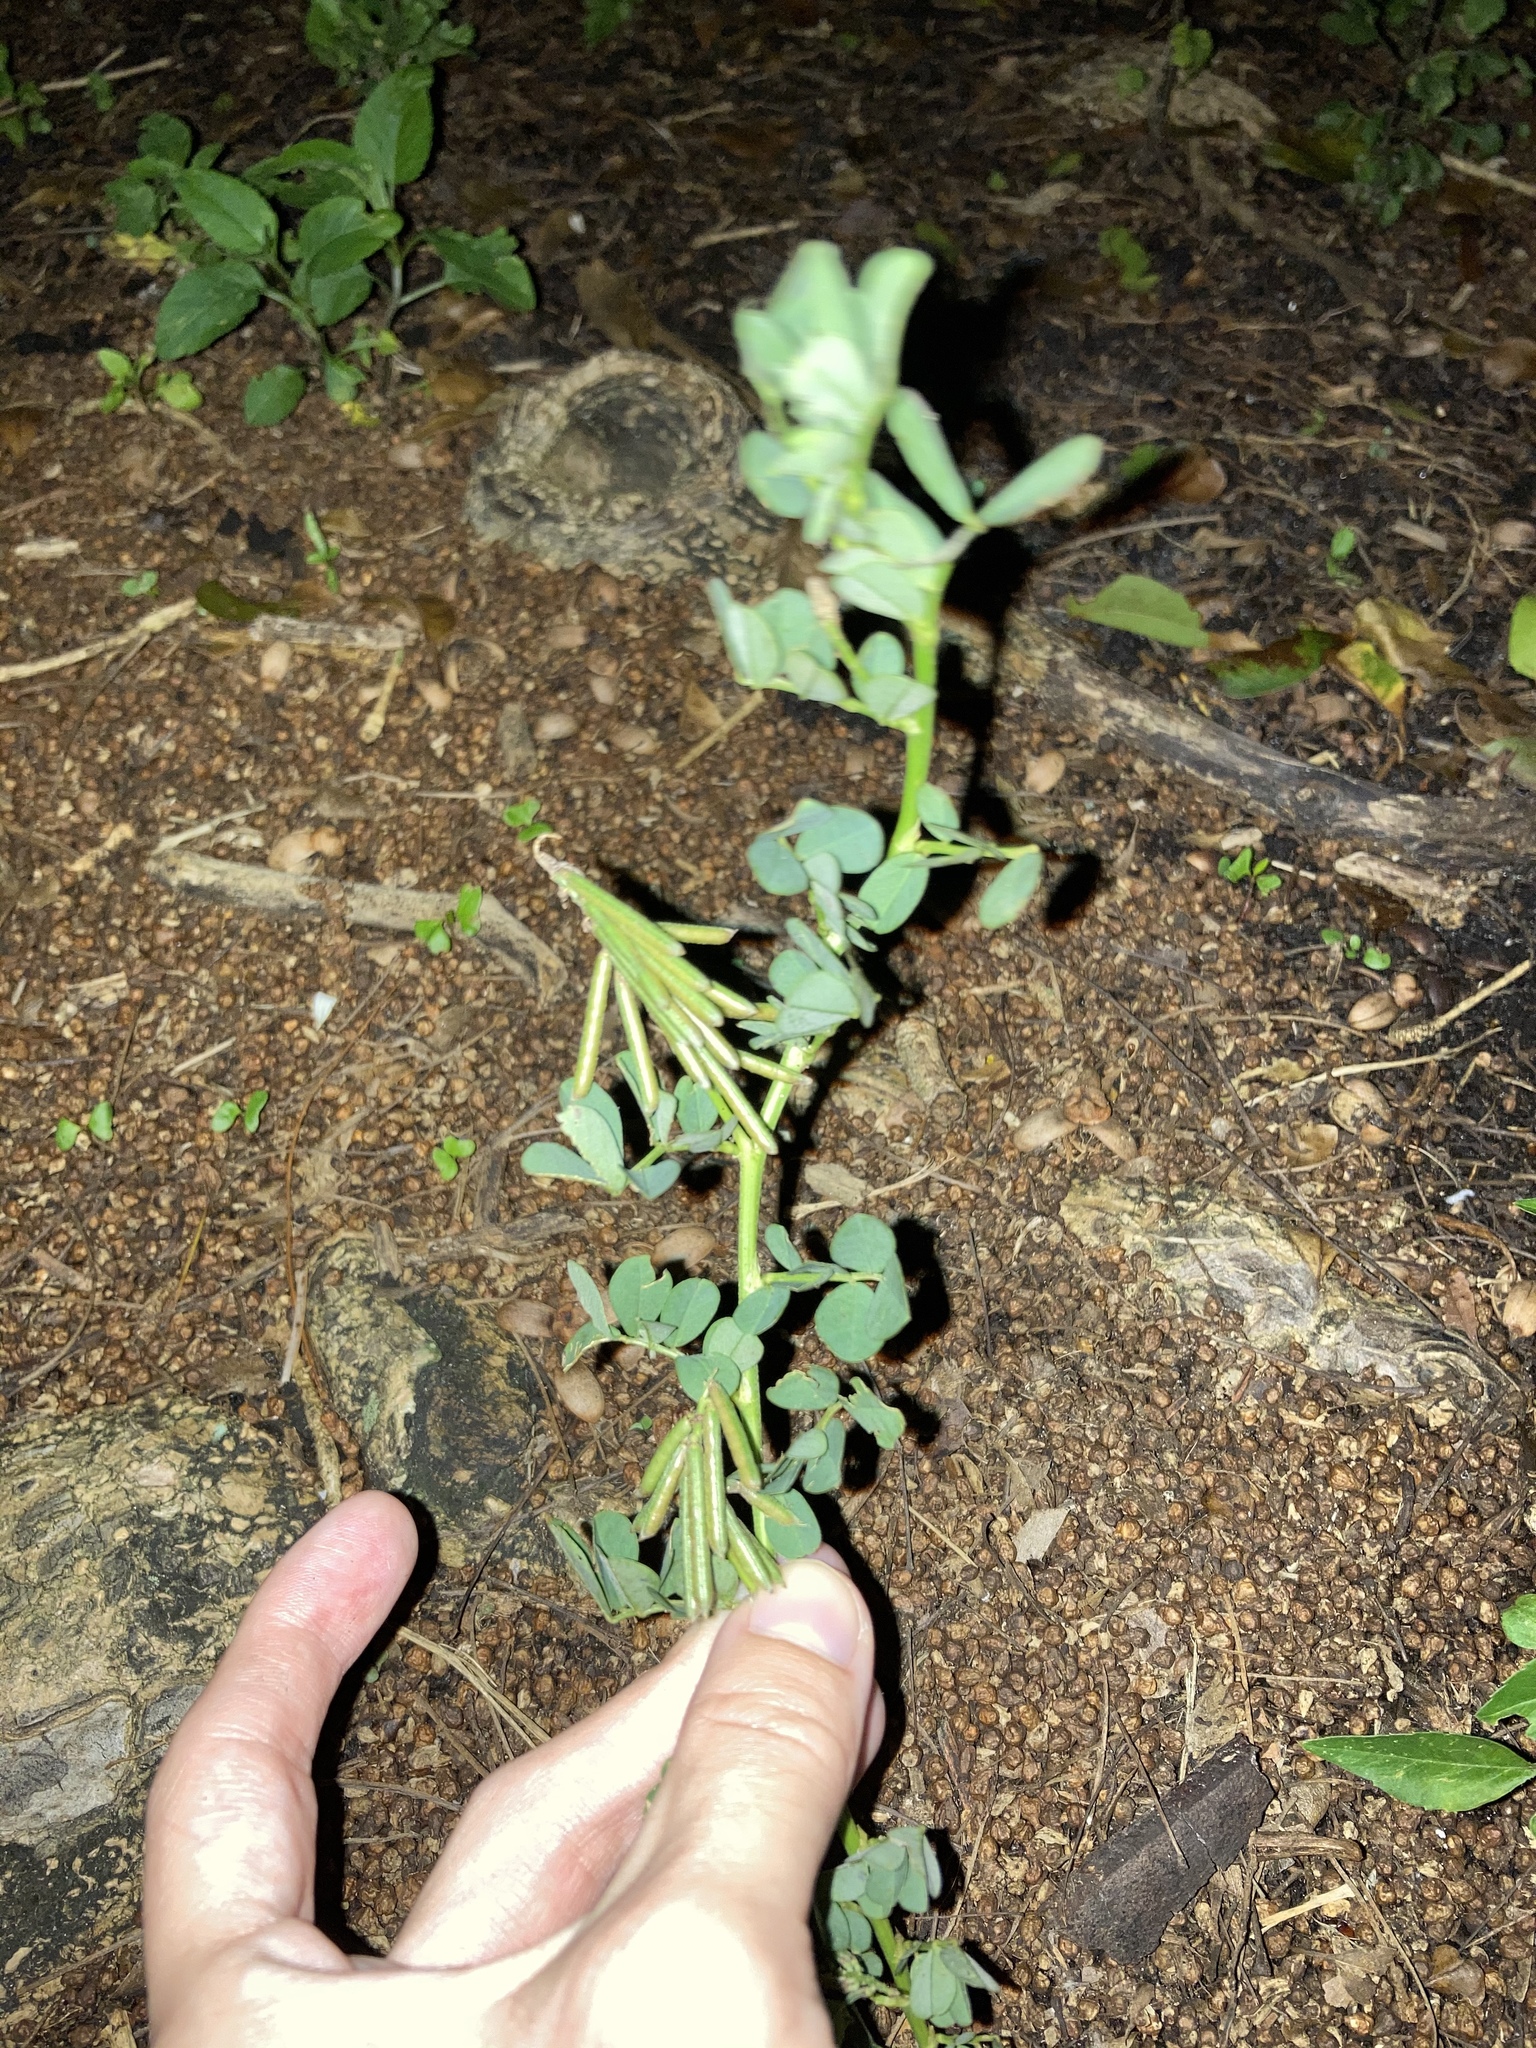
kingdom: Plantae
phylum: Tracheophyta
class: Magnoliopsida
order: Fabales
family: Fabaceae
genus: Indigofera
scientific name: Indigofera spicata
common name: Creeping indigo
